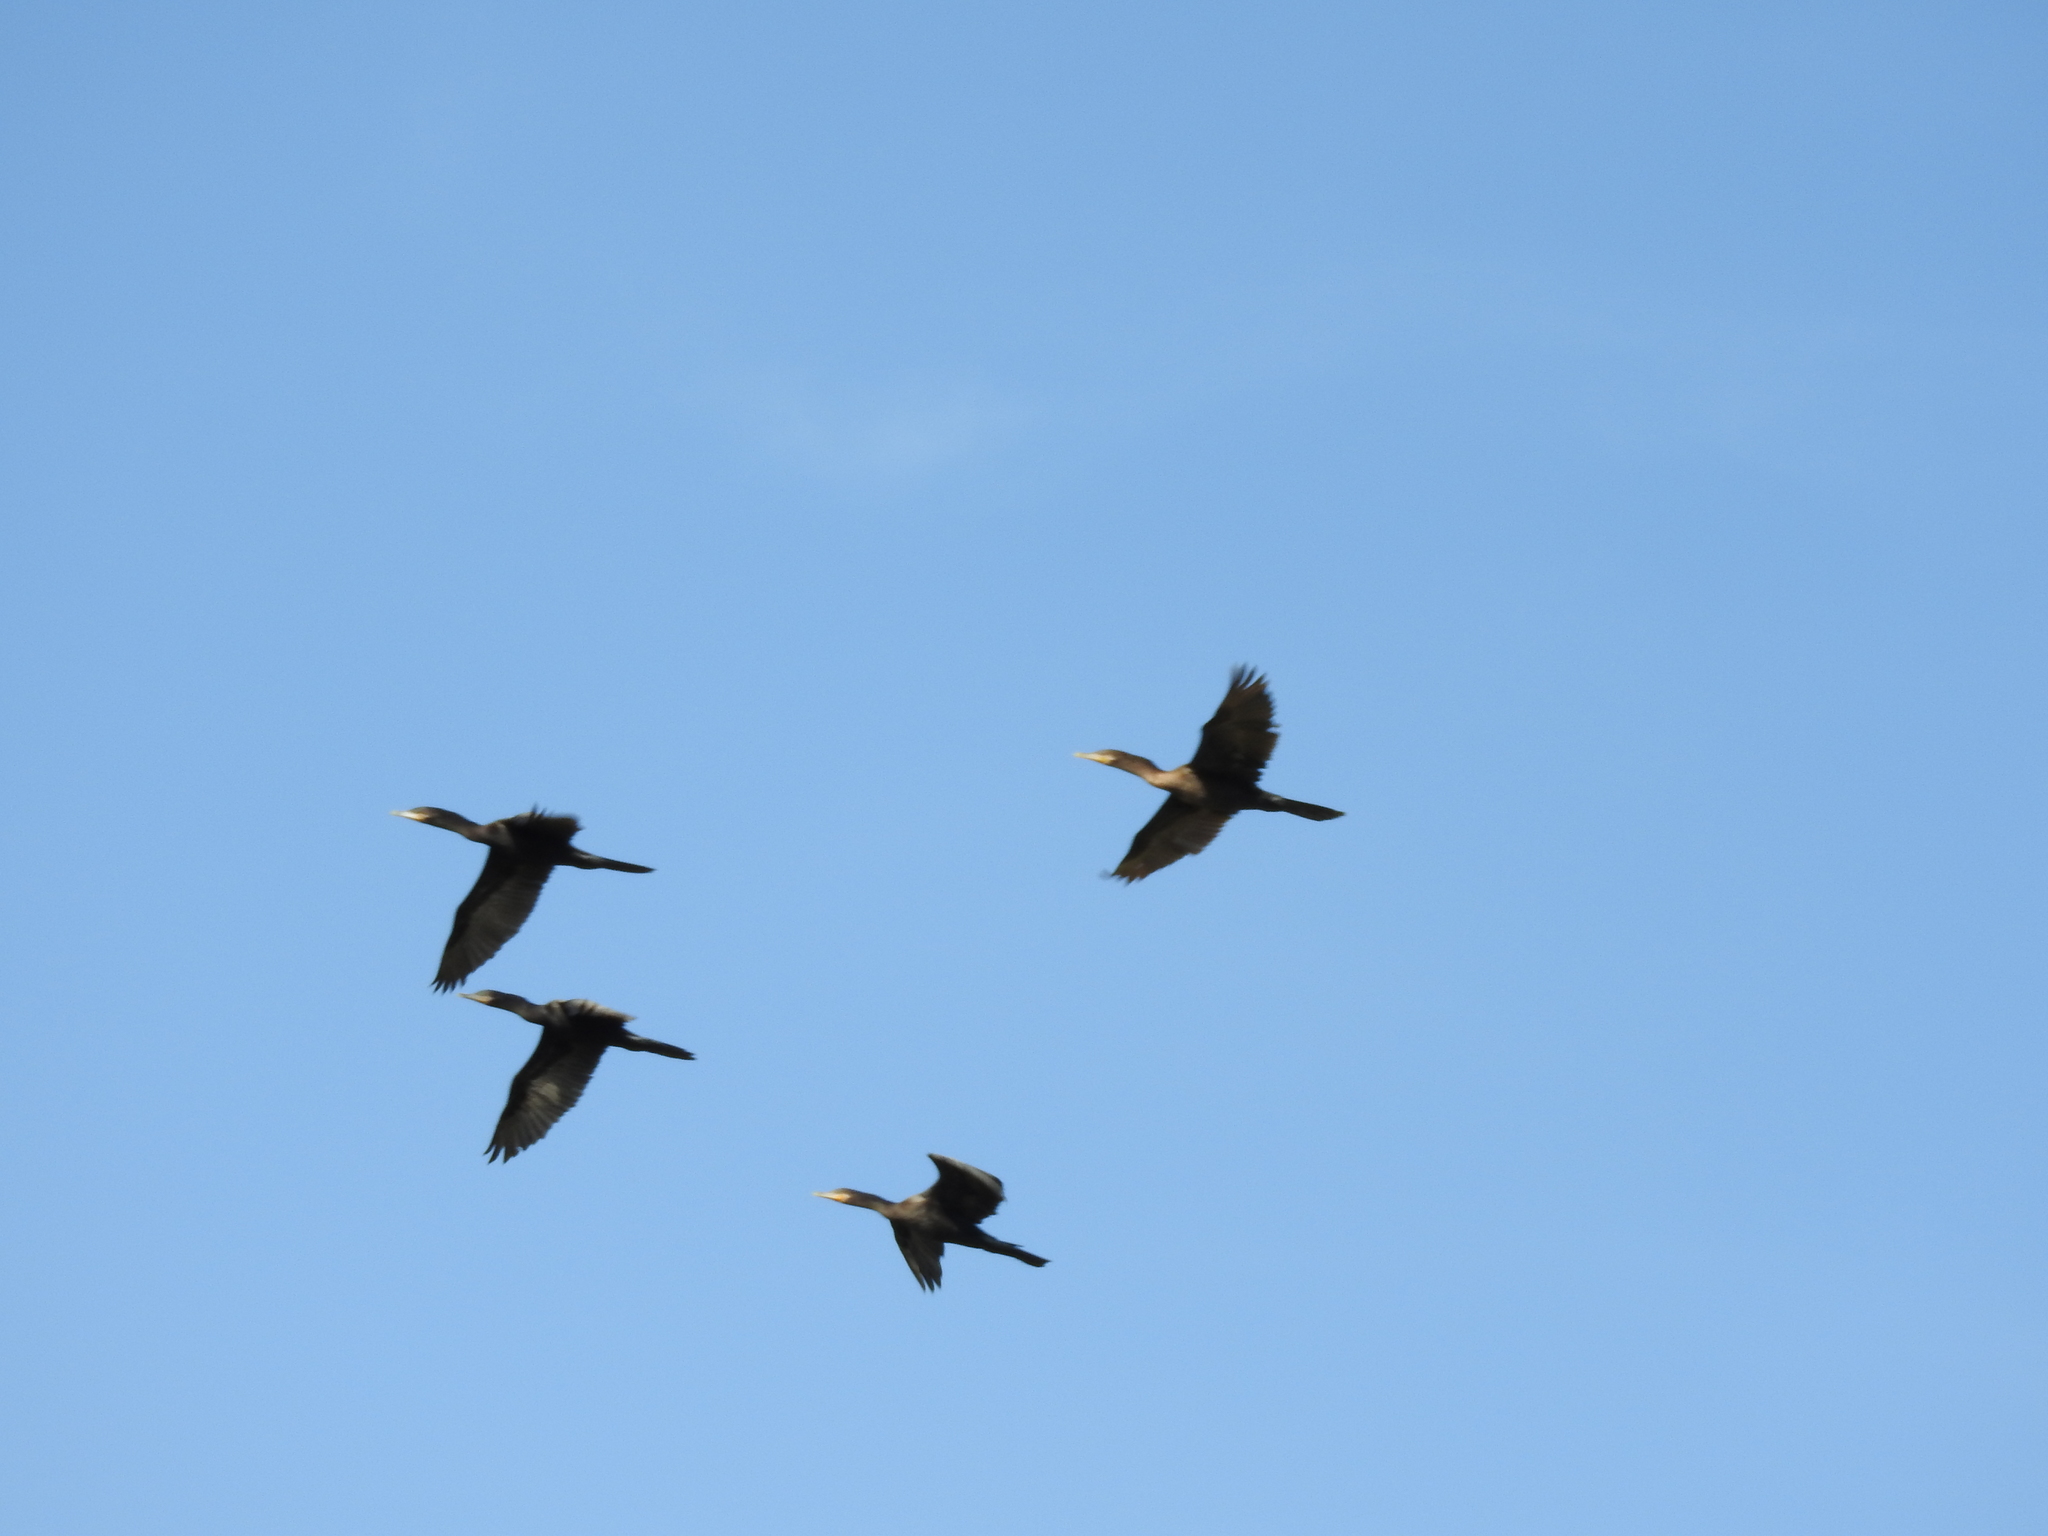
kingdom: Animalia
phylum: Chordata
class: Aves
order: Suliformes
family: Phalacrocoracidae
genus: Phalacrocorax
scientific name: Phalacrocorax brasilianus
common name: Neotropic cormorant
